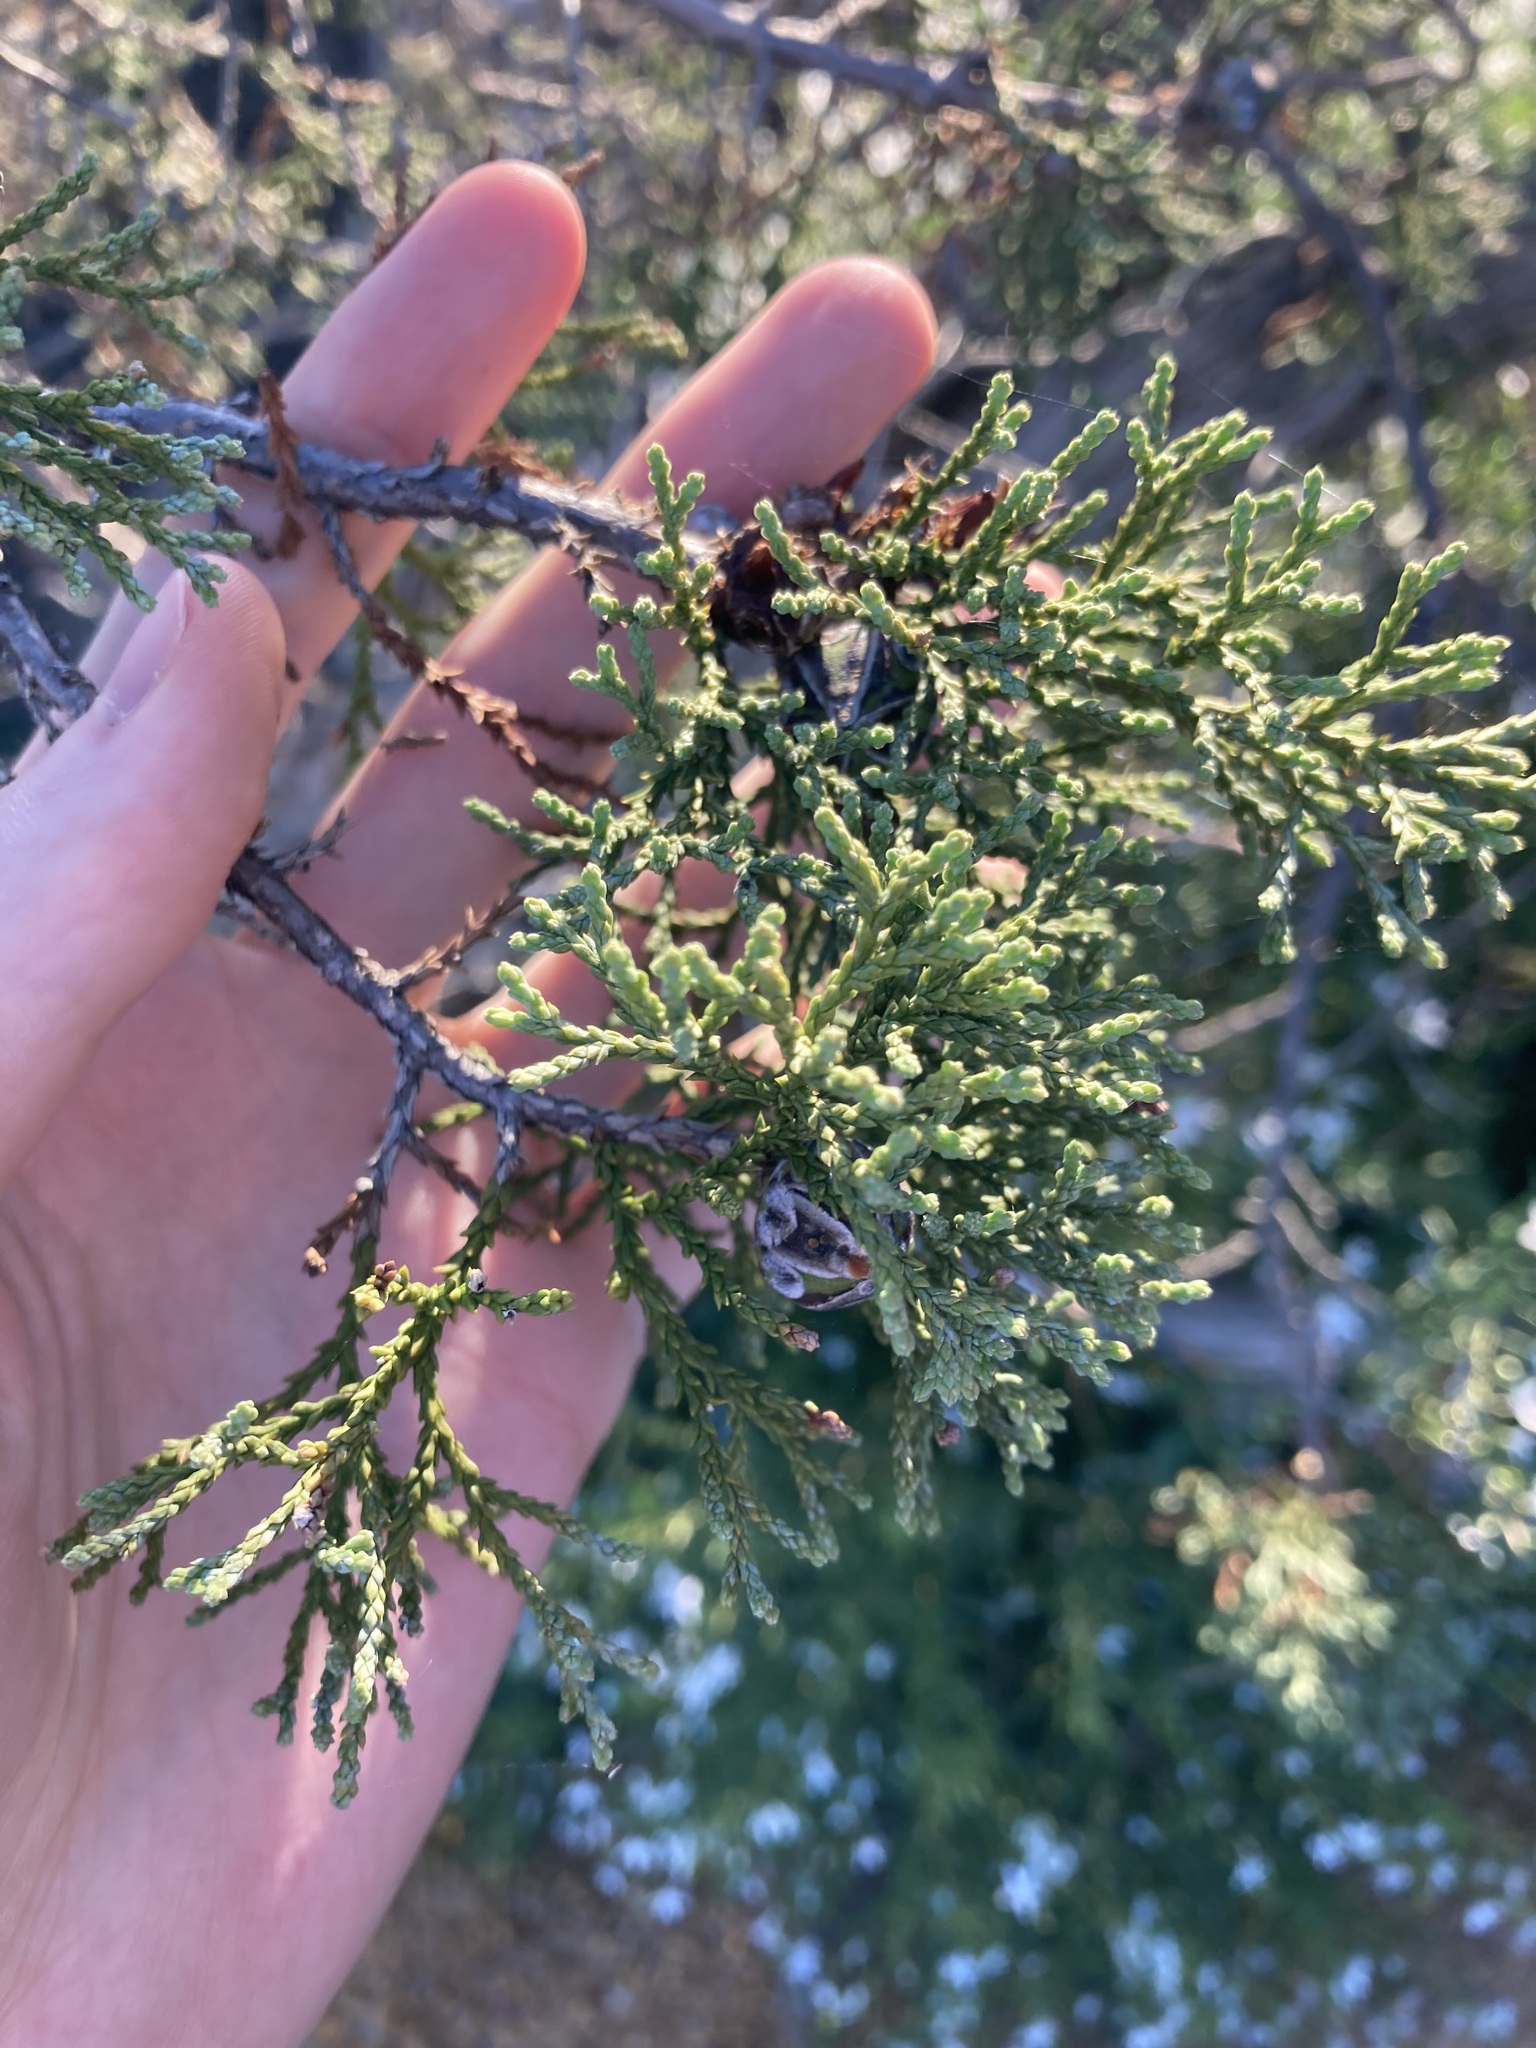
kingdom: Plantae
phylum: Tracheophyta
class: Pinopsida
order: Pinales
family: Cupressaceae
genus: Actinostrobus
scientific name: Actinostrobus arenarius
